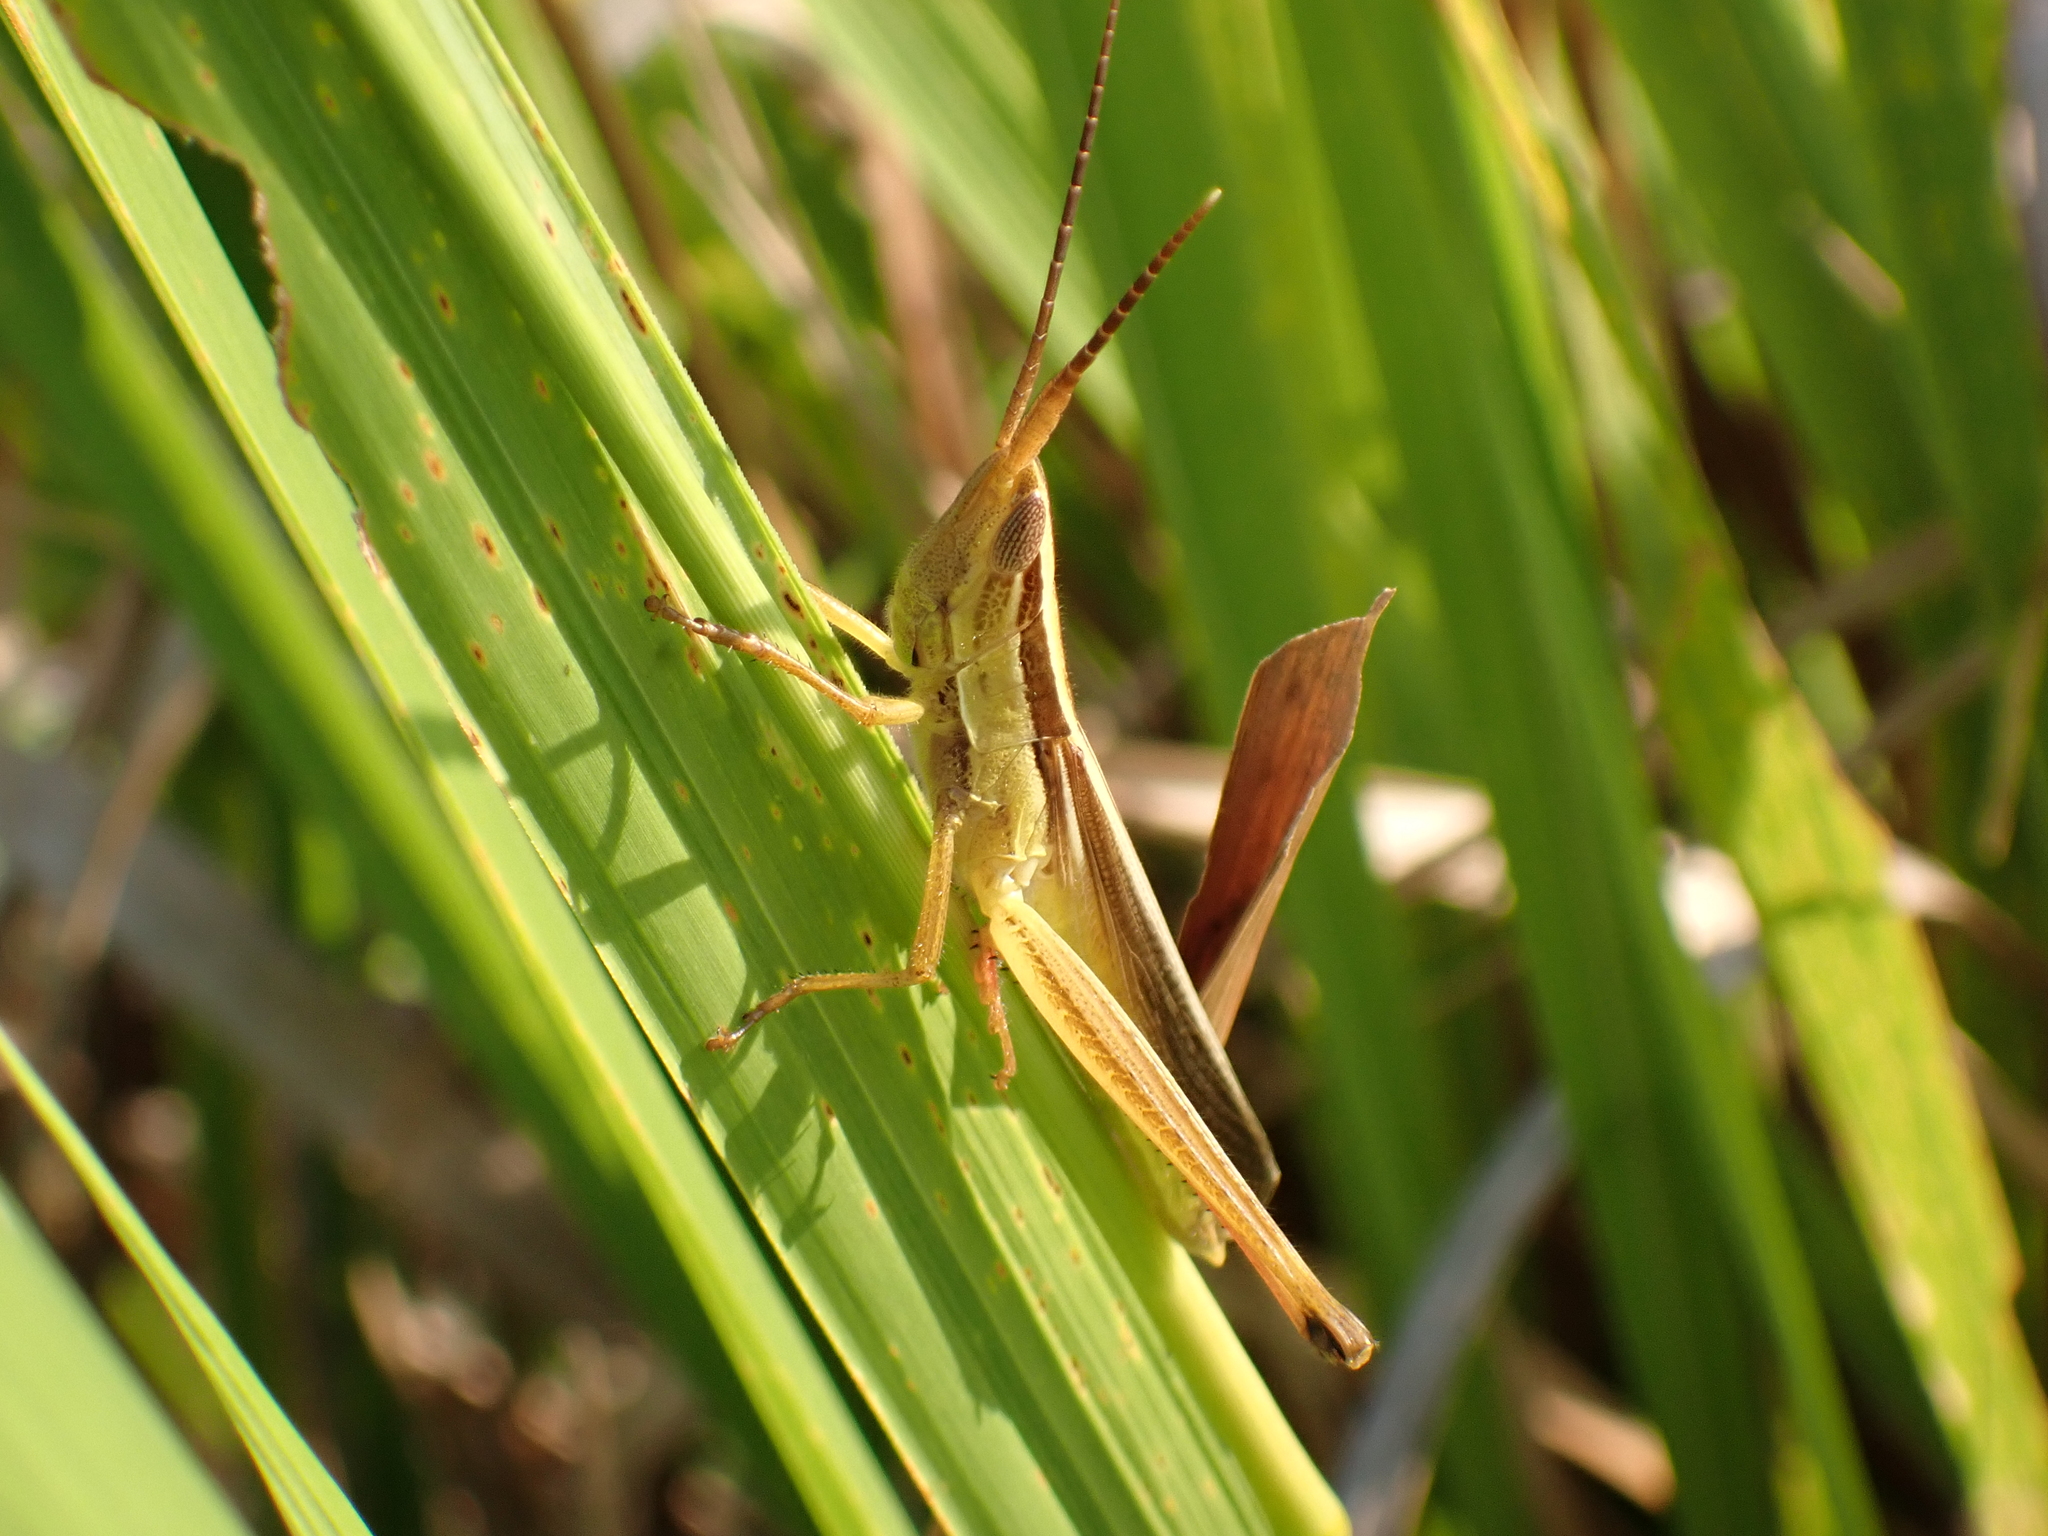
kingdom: Animalia
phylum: Arthropoda
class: Insecta
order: Orthoptera
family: Acrididae
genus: Mermiria
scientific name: Mermiria intertexta
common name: Eastern mermiria grasshopper
